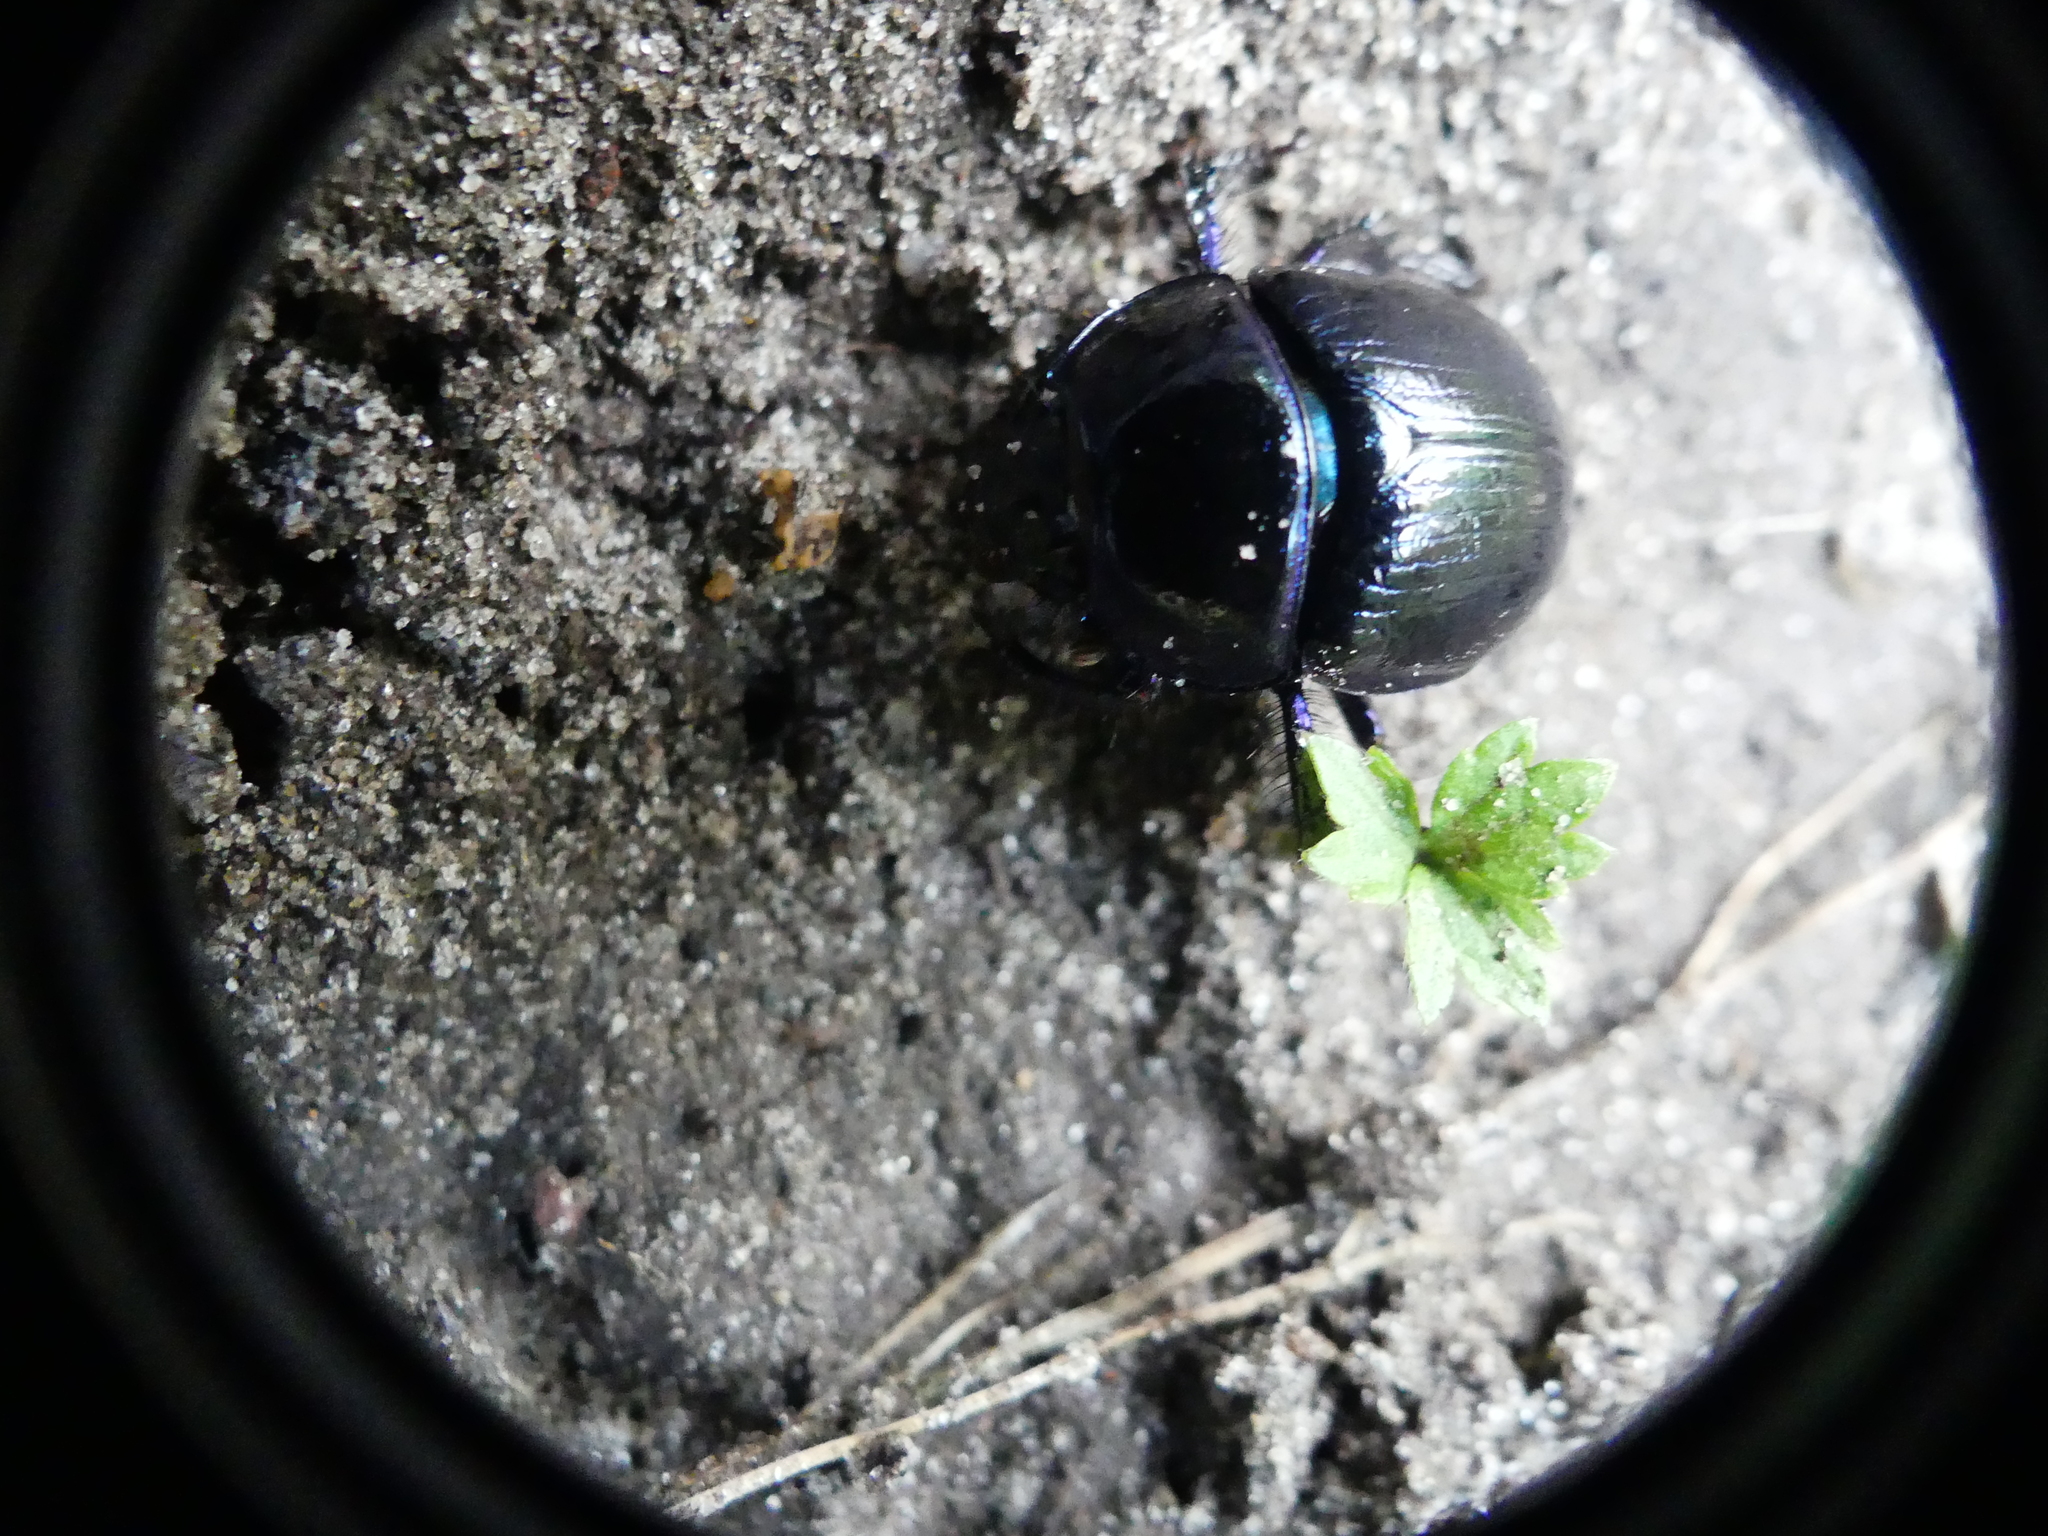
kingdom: Animalia
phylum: Arthropoda
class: Insecta
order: Coleoptera
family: Geotrupidae
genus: Anoplotrupes
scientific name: Anoplotrupes stercorosus
